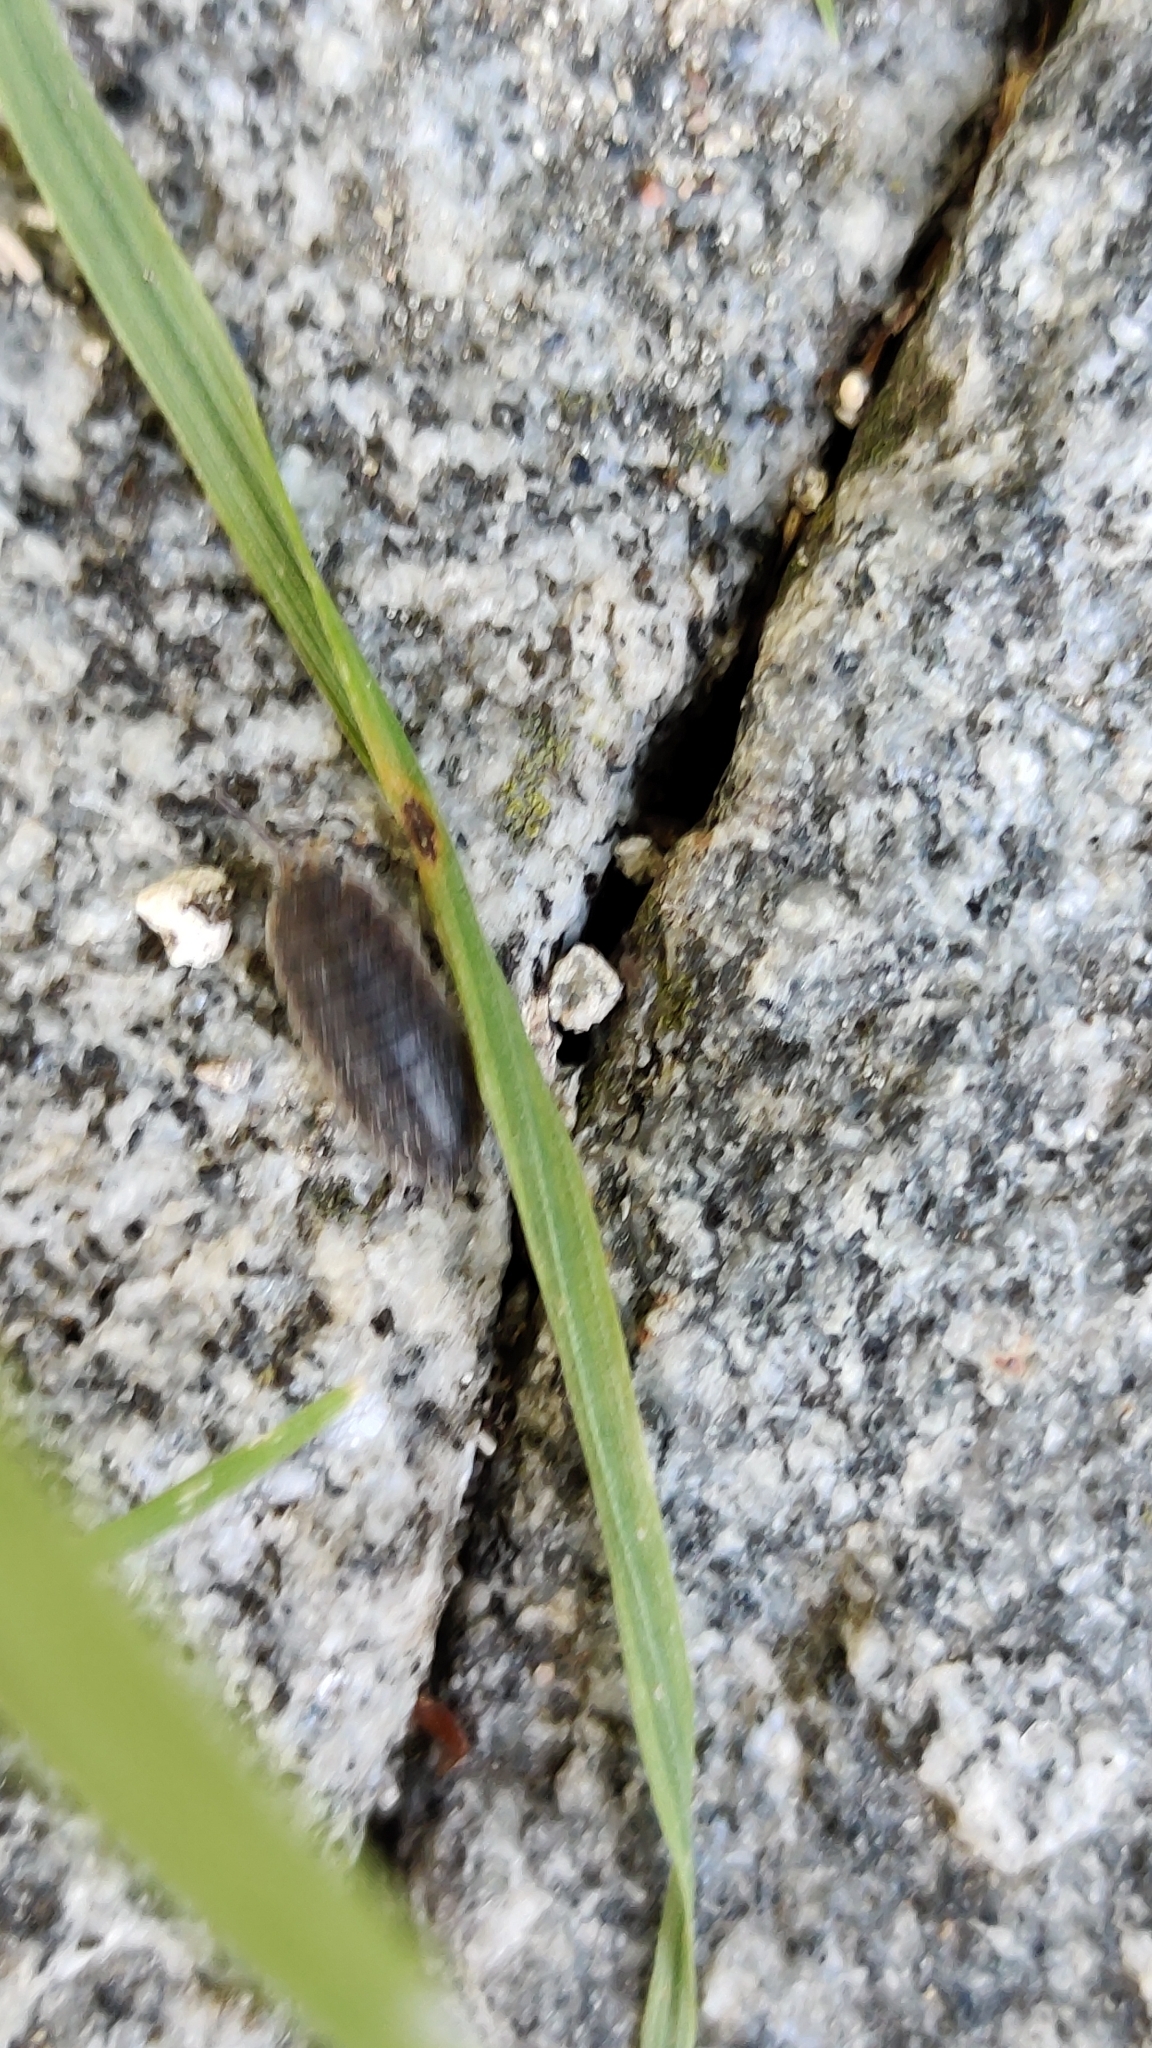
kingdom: Animalia
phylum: Arthropoda
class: Malacostraca
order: Isopoda
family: Porcellionidae
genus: Porcellio
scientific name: Porcellio scaber
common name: Common rough woodlouse
